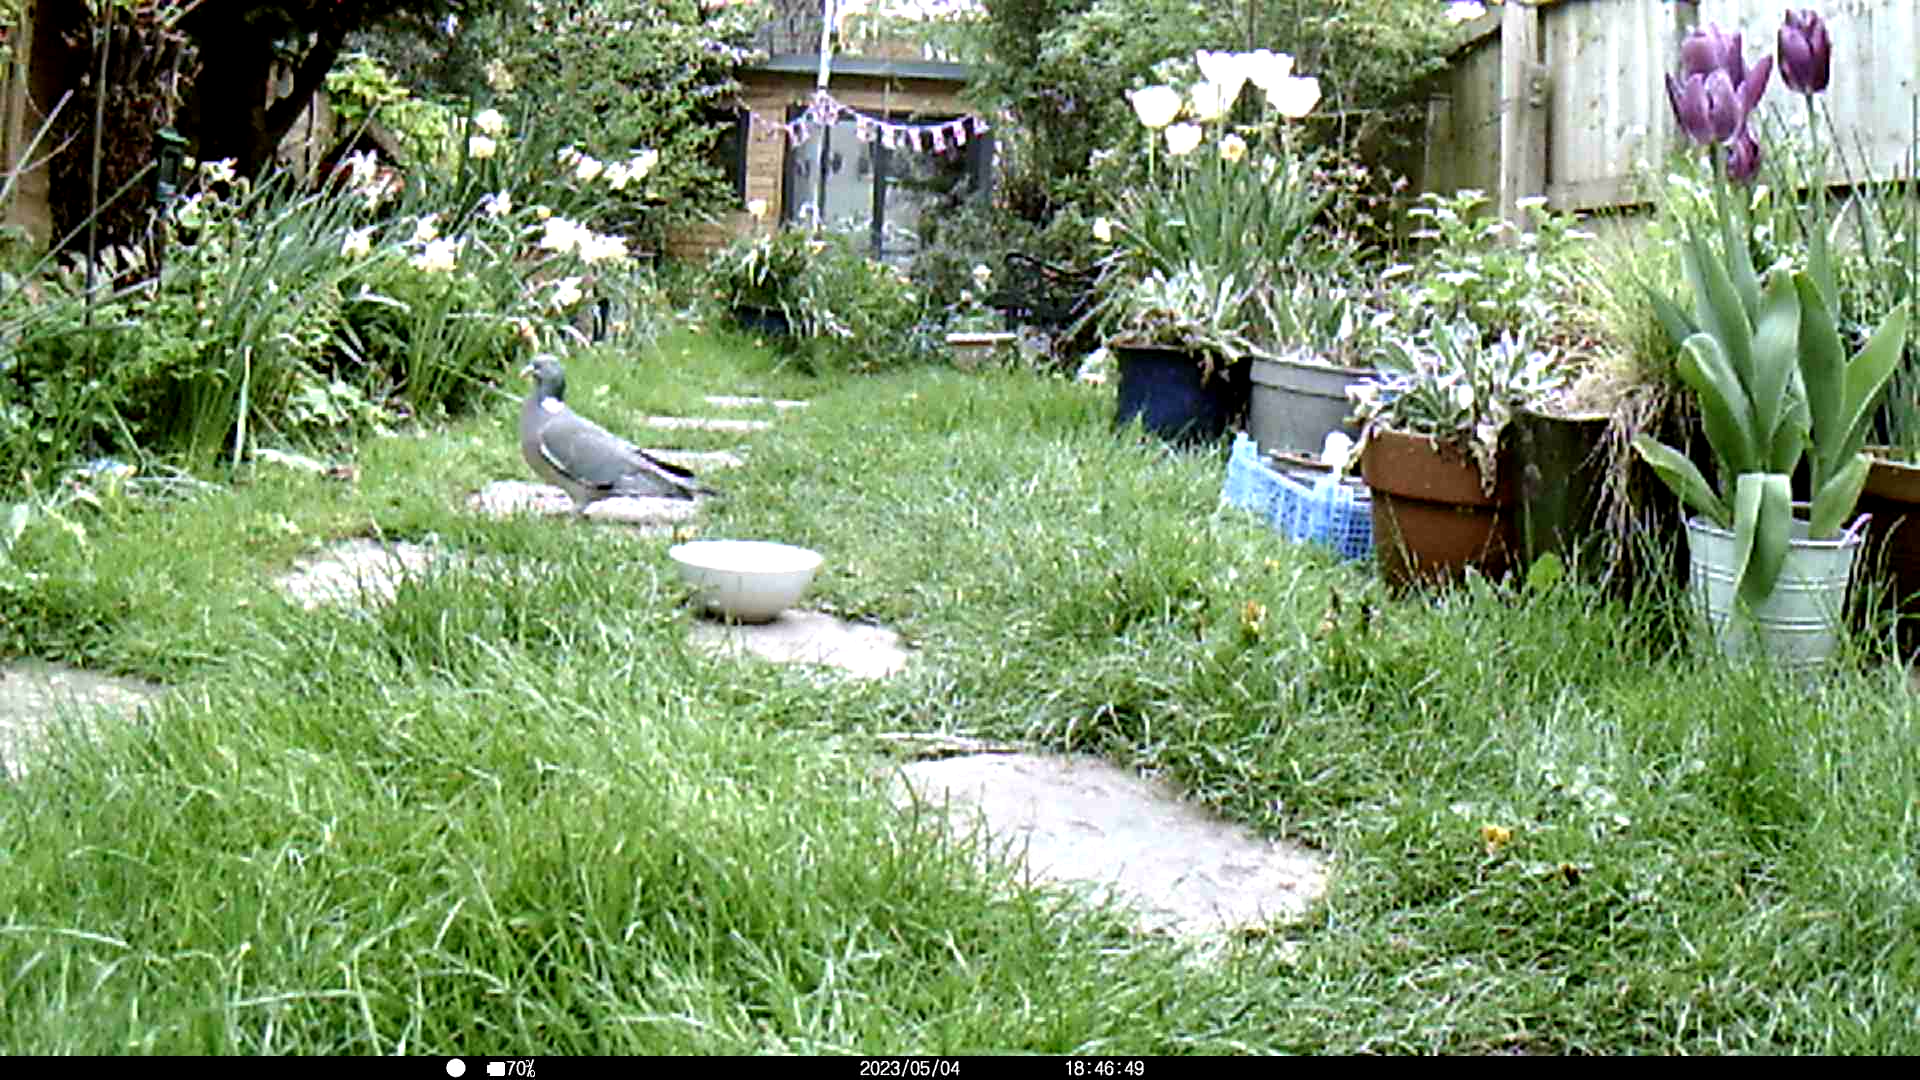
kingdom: Animalia
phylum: Chordata
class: Aves
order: Columbiformes
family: Columbidae
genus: Columba
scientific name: Columba palumbus
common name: Common wood pigeon
